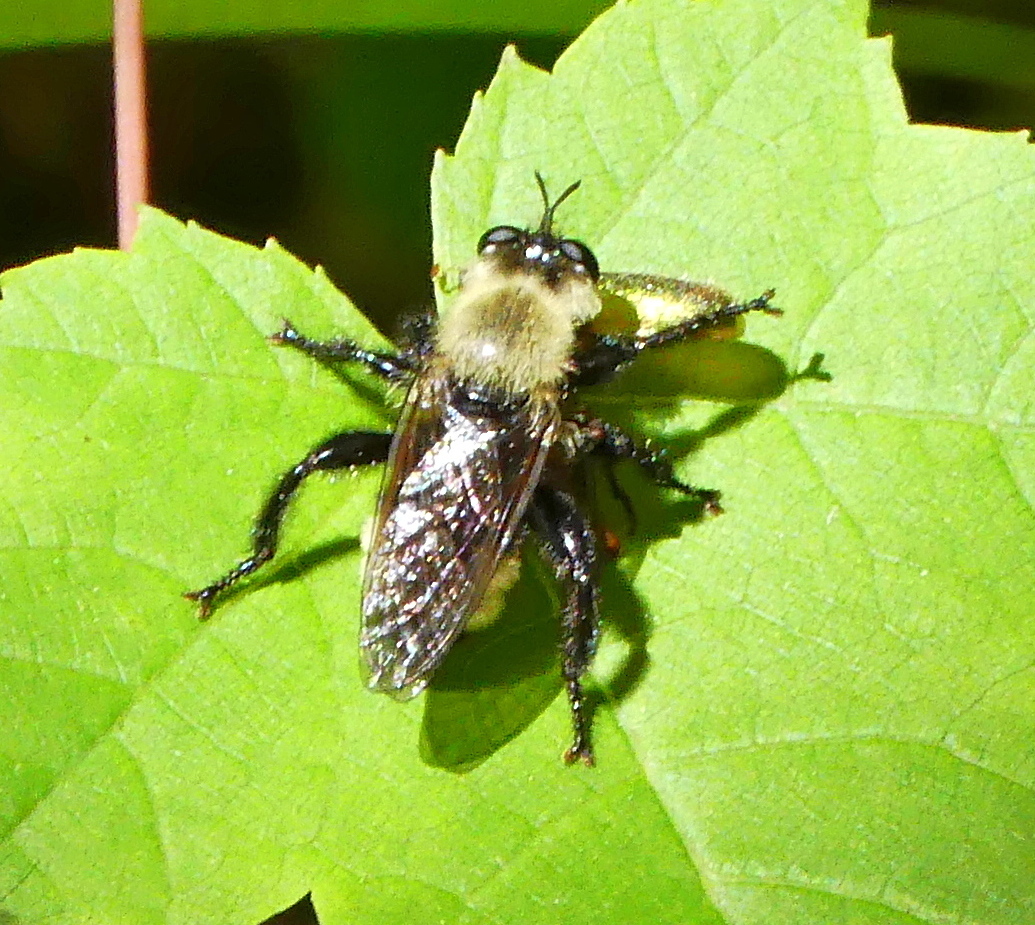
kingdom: Animalia
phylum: Arthropoda
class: Insecta
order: Diptera
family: Asilidae
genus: Laphria
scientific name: Laphria posticata
